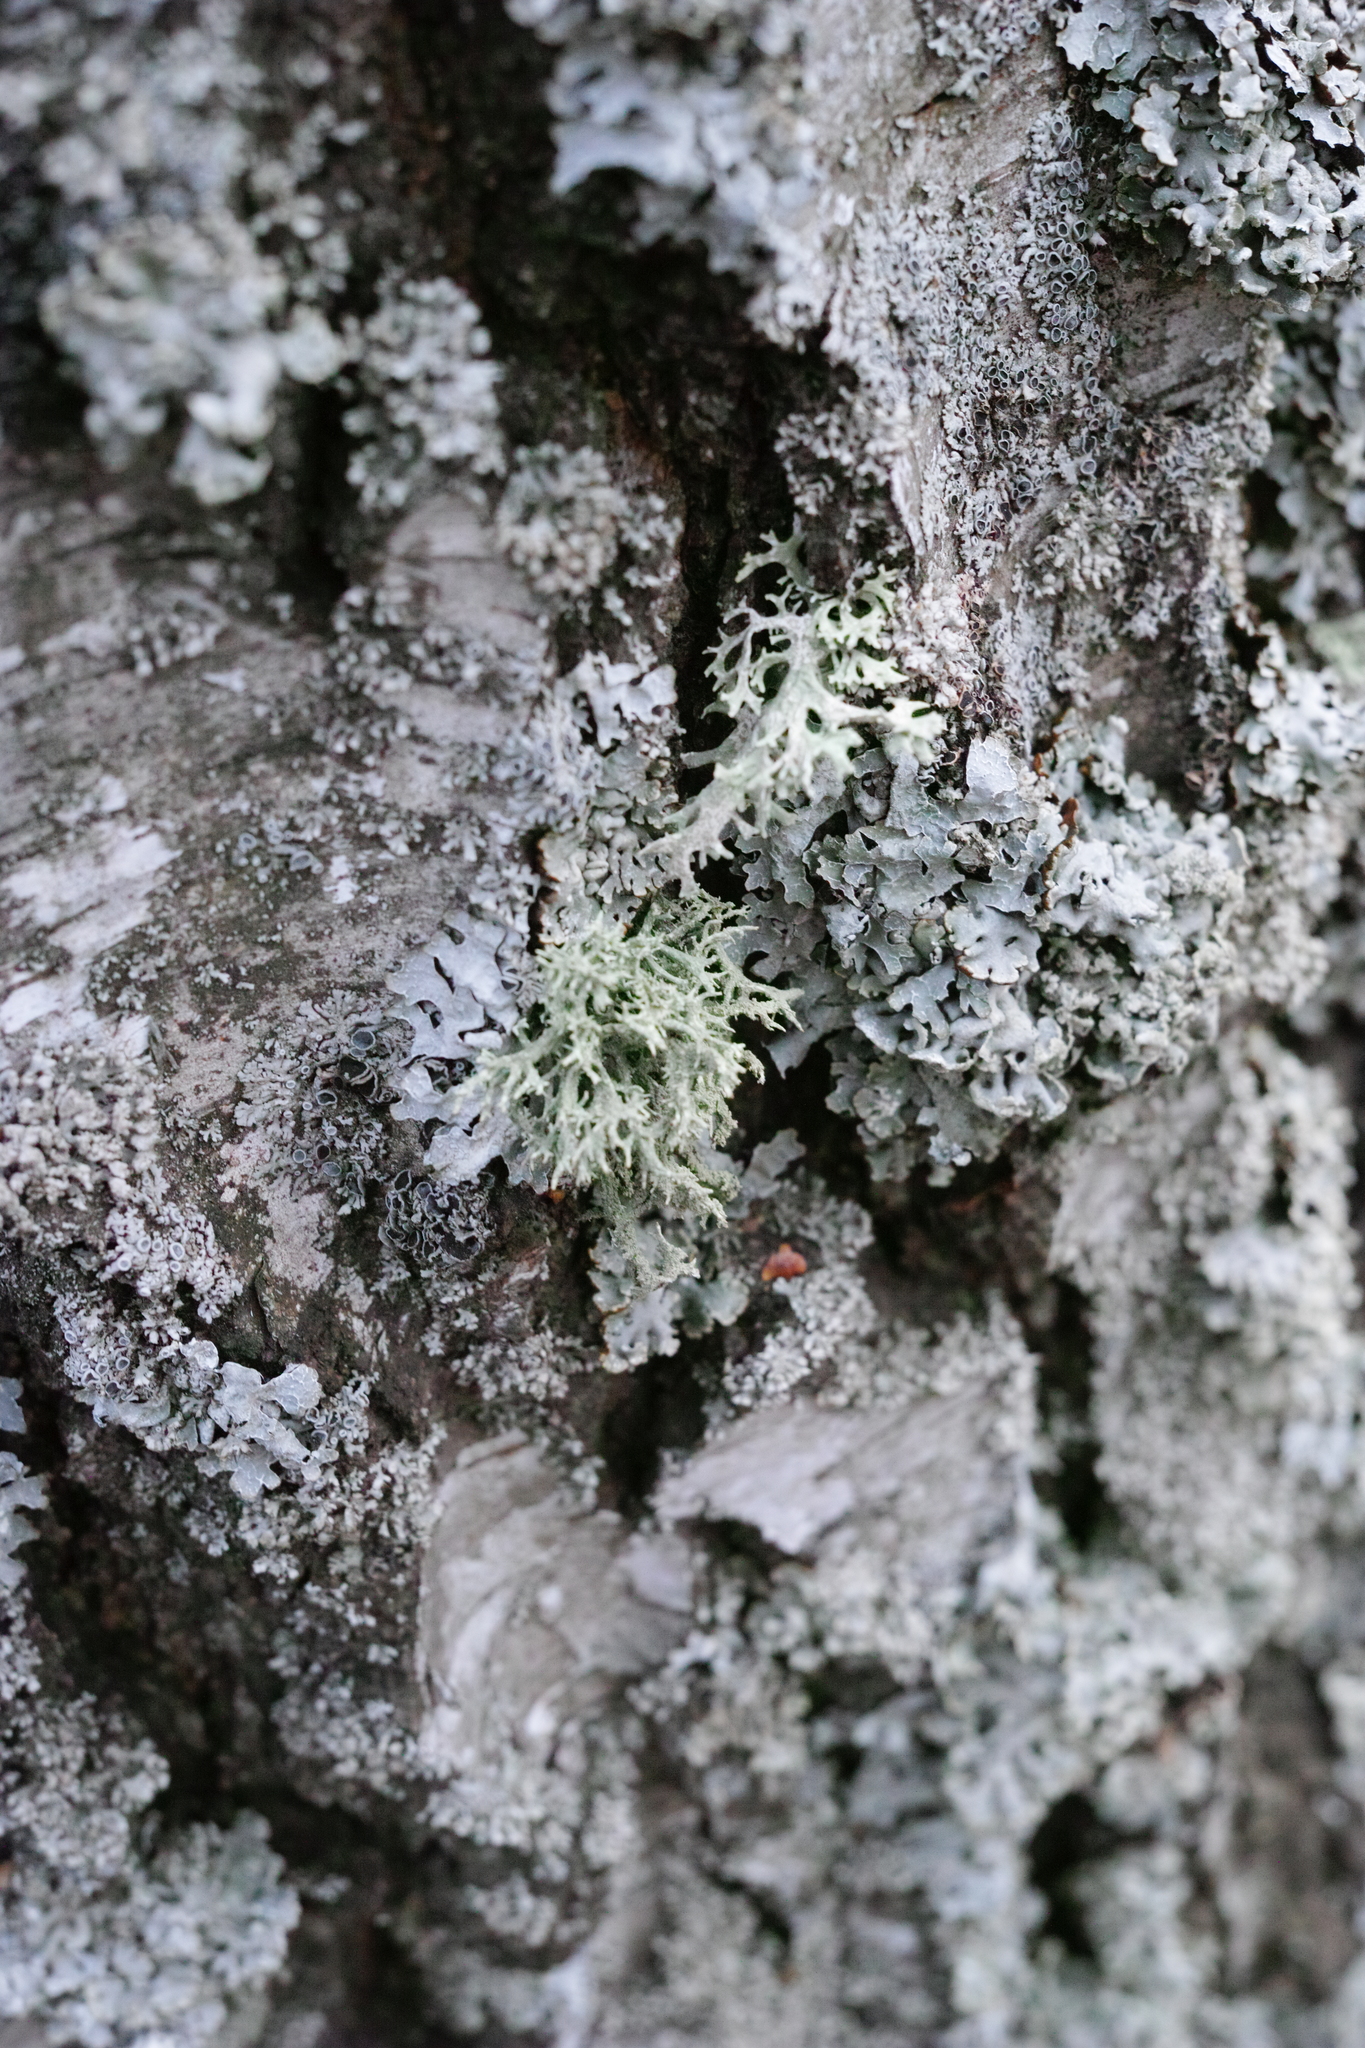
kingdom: Fungi
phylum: Ascomycota
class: Lecanoromycetes
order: Lecanorales
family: Parmeliaceae
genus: Hypogymnia
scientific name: Hypogymnia physodes
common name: Dark crottle
